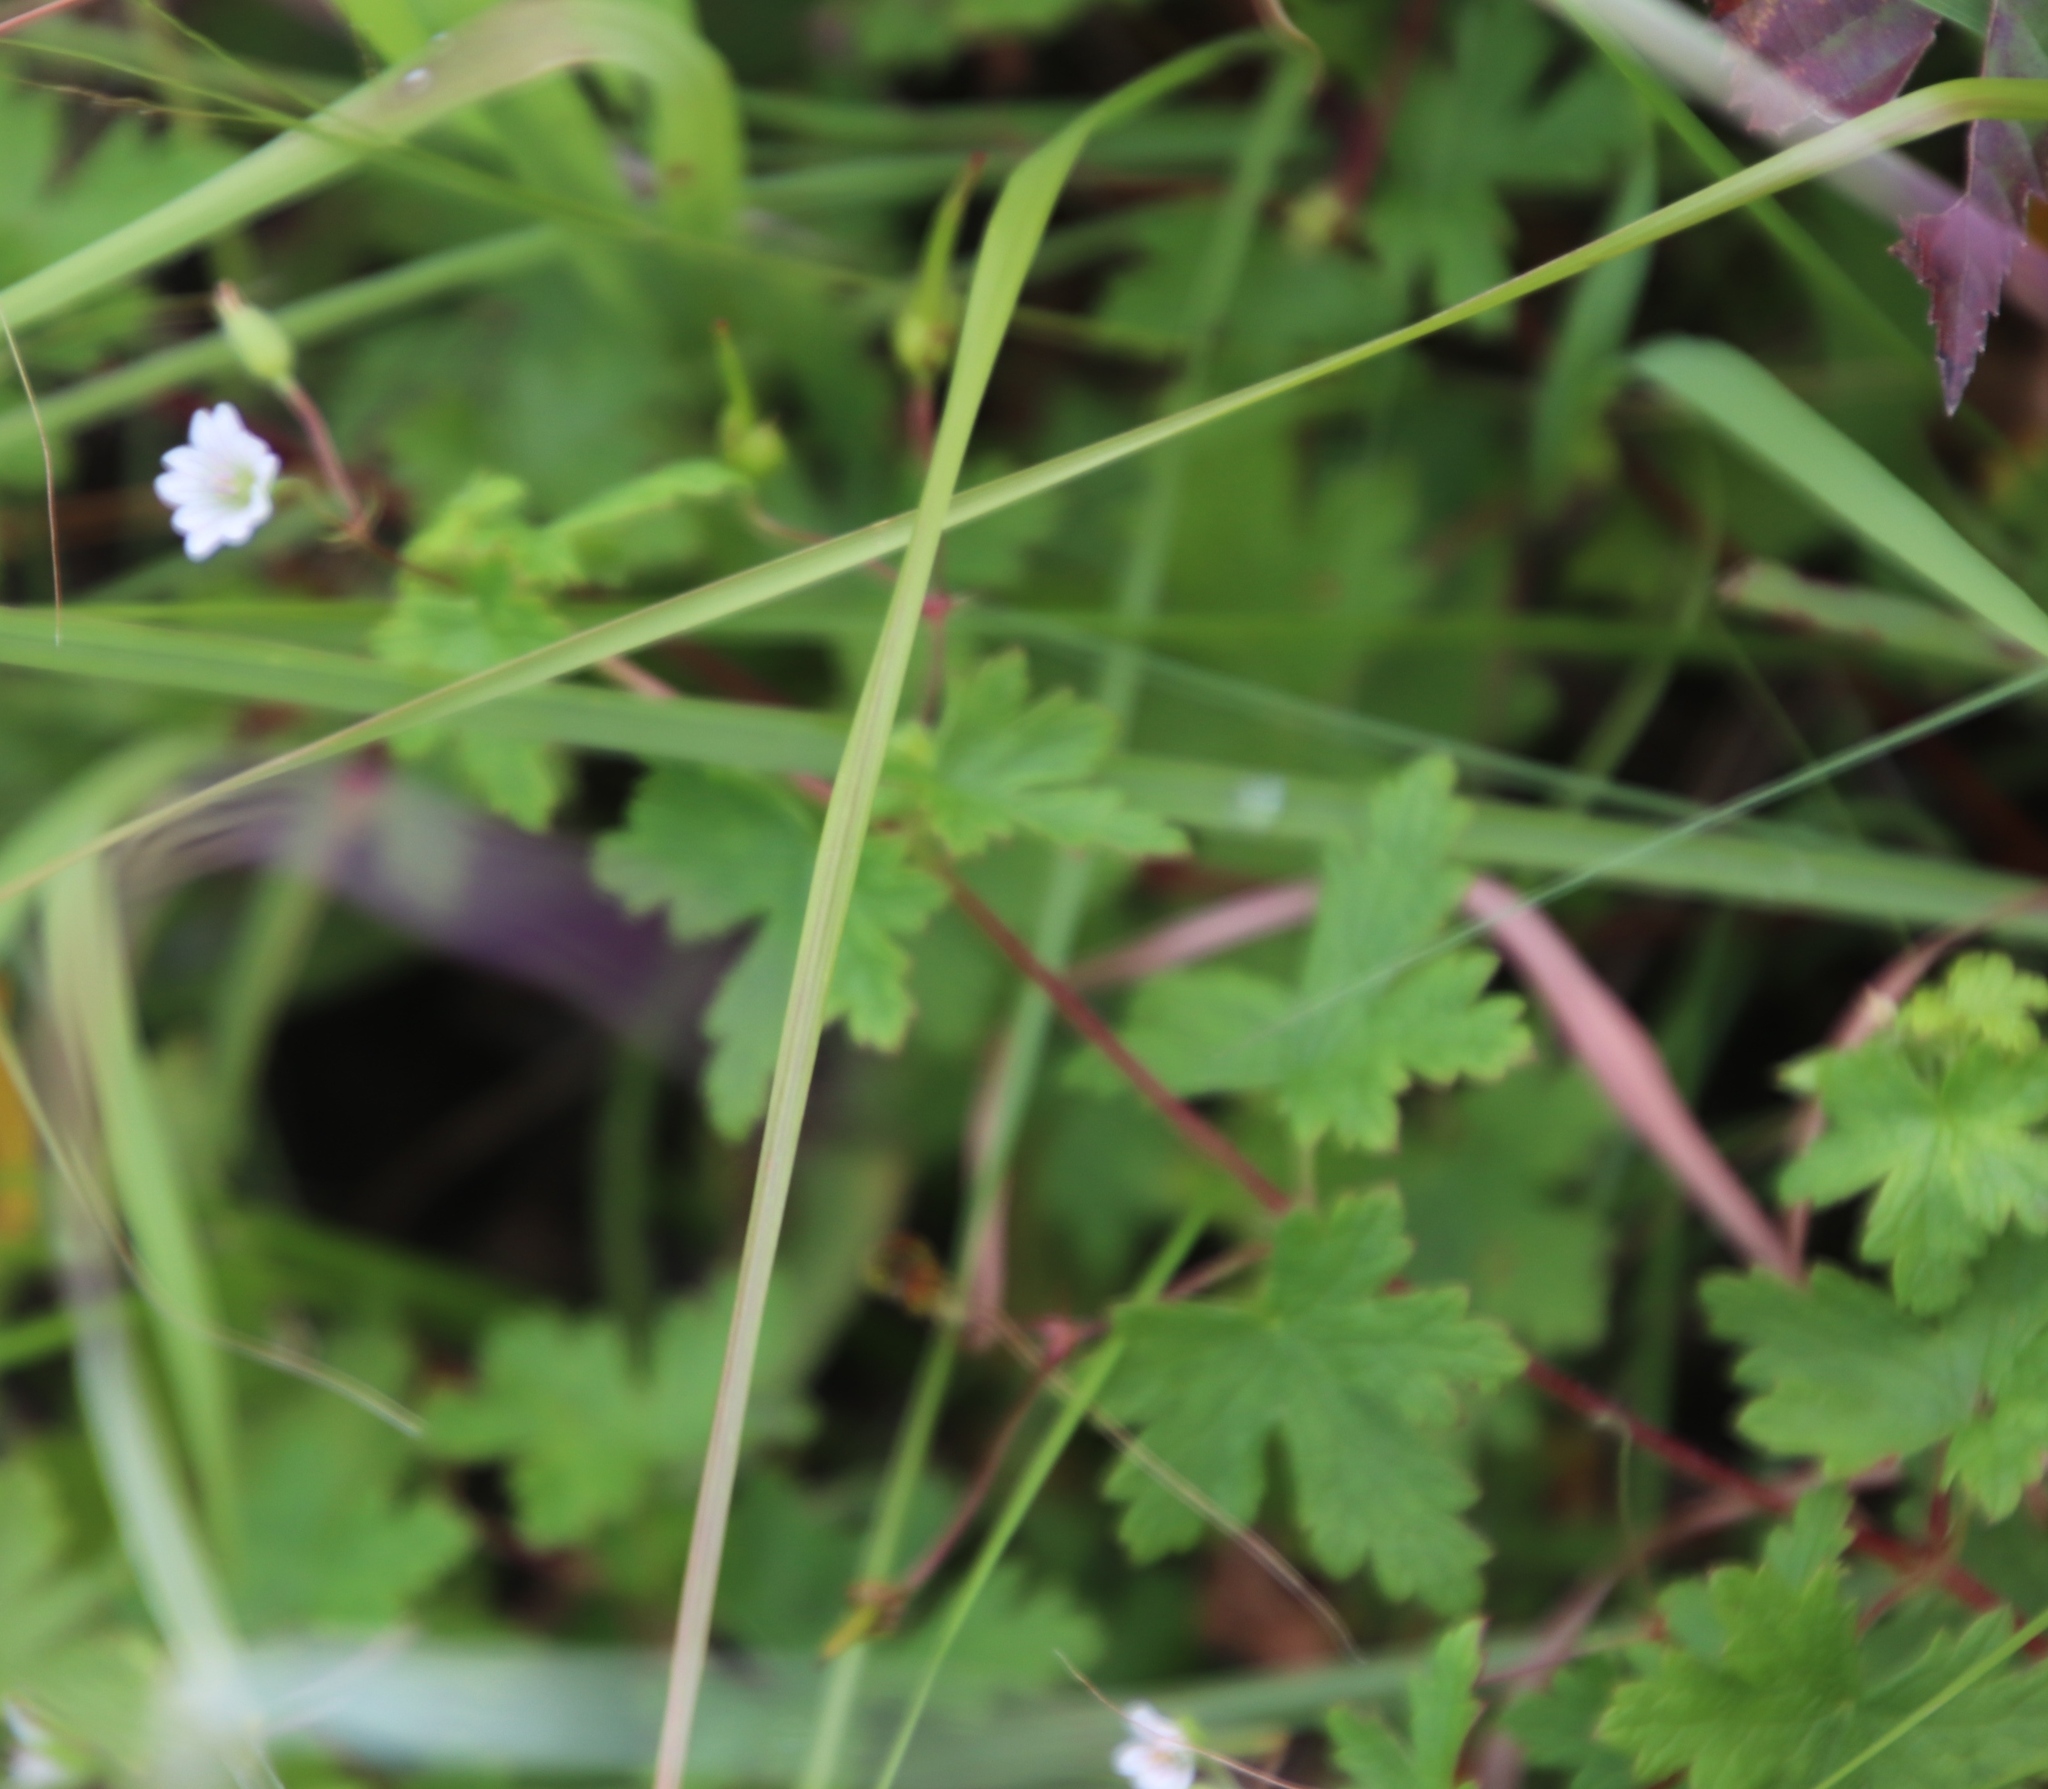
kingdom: Plantae
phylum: Tracheophyta
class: Magnoliopsida
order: Geraniales
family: Geraniaceae
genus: Geranium
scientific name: Geranium wakkerstroomianum
